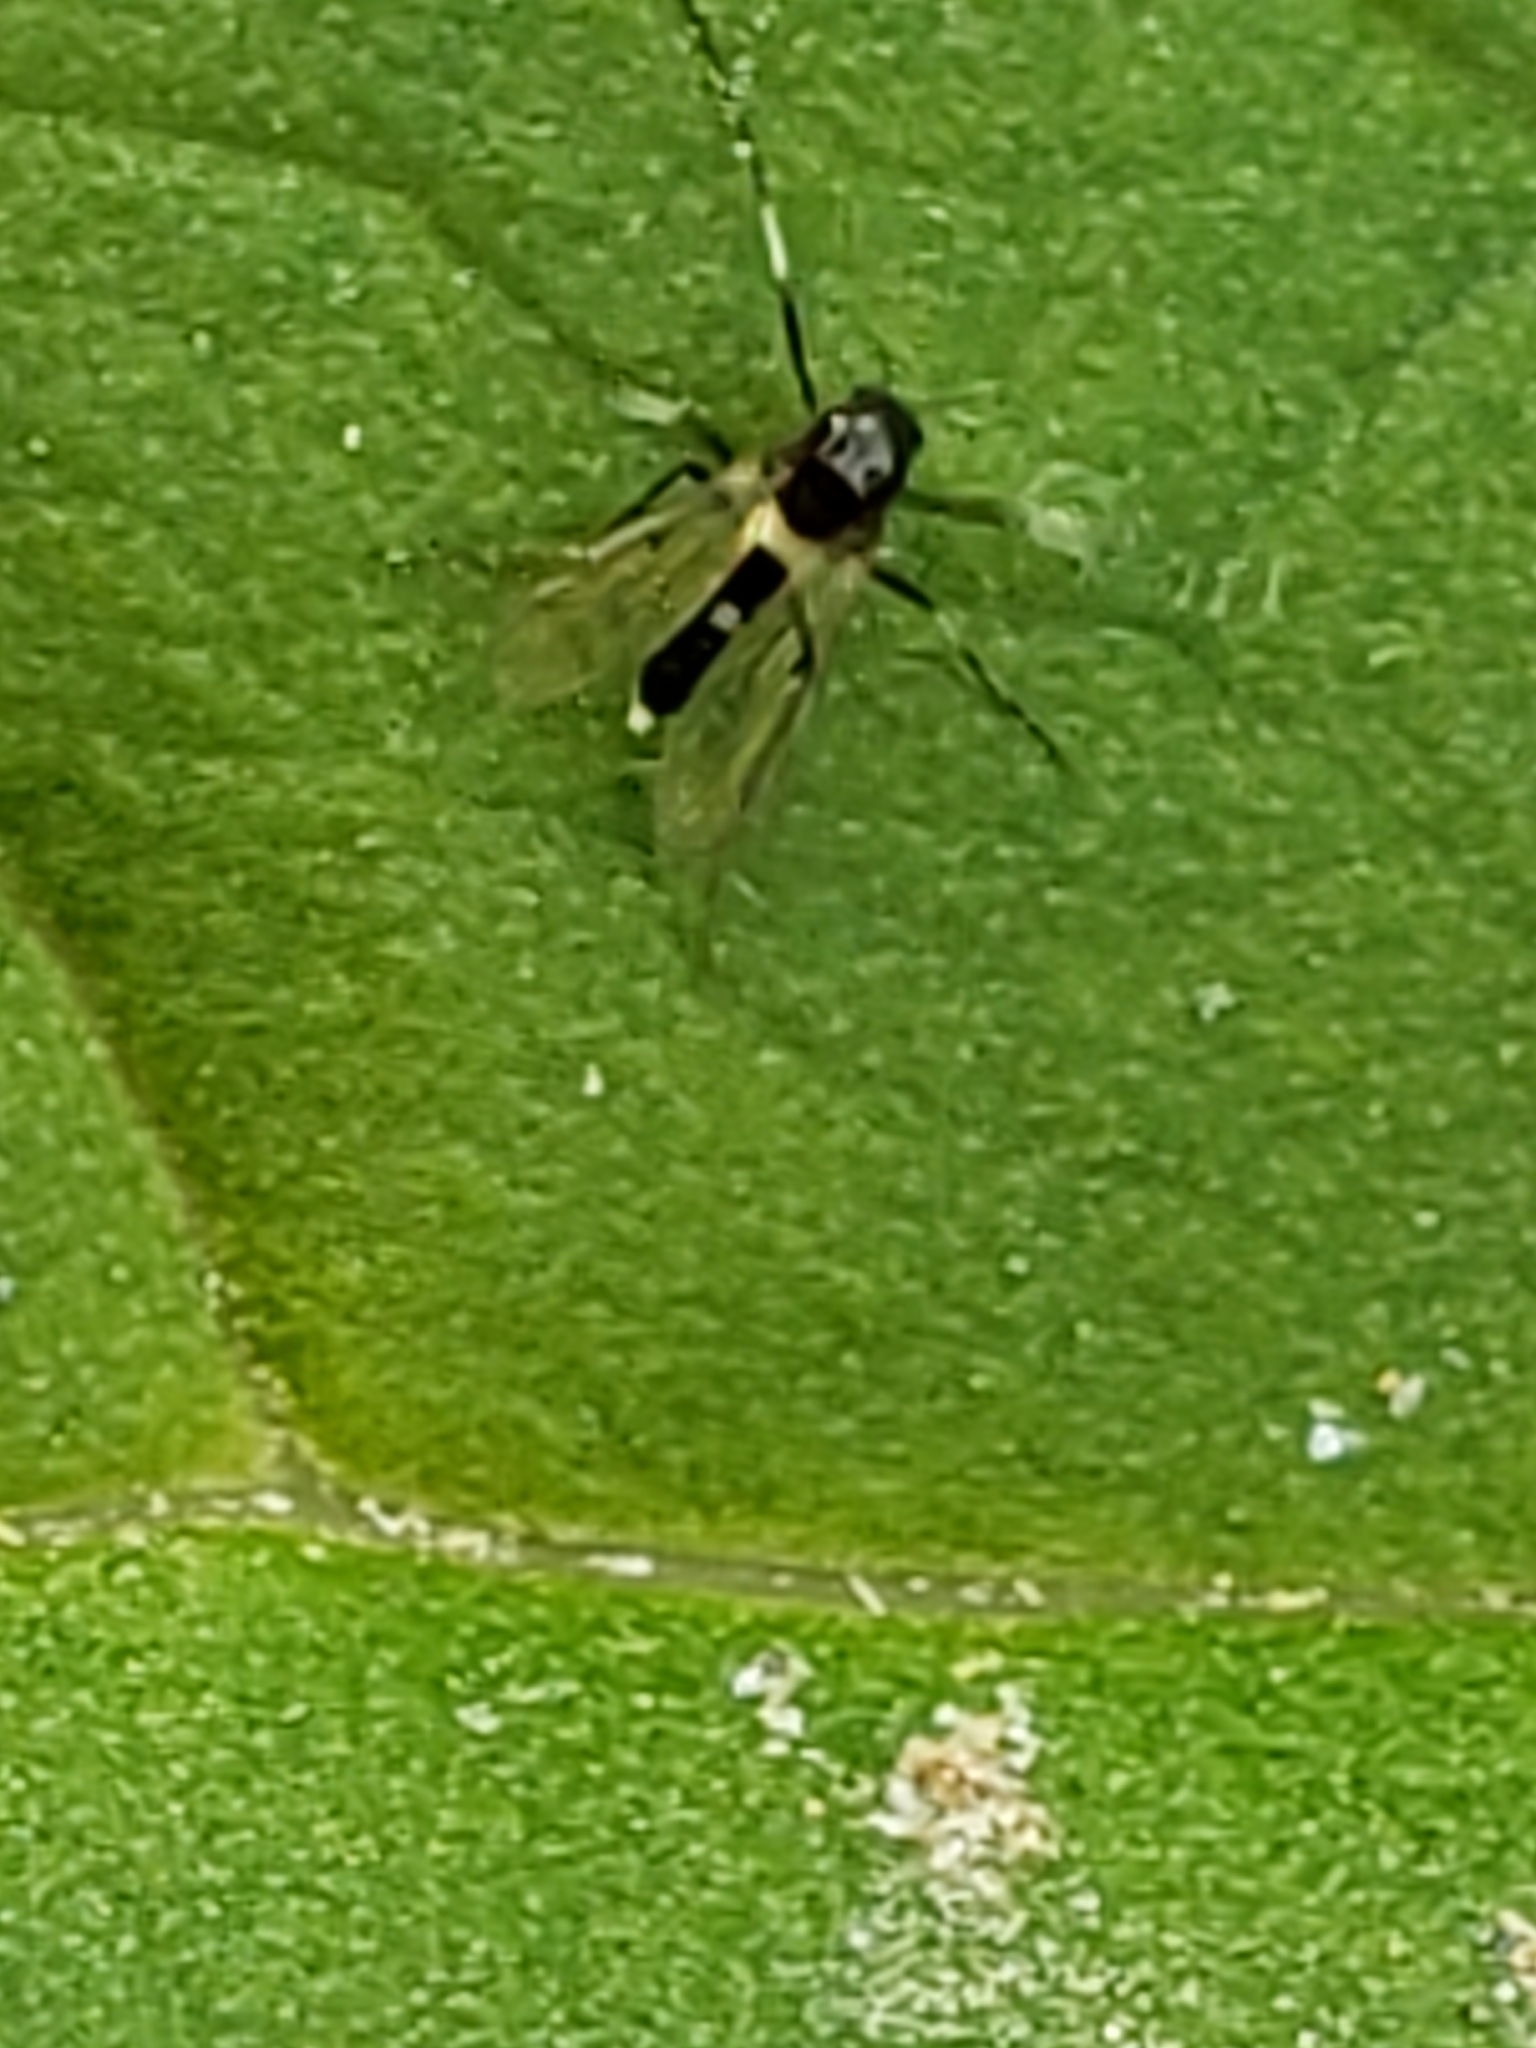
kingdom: Animalia
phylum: Arthropoda
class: Insecta
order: Diptera
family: Chironomidae
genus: Cricotopus
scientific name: Cricotopus
